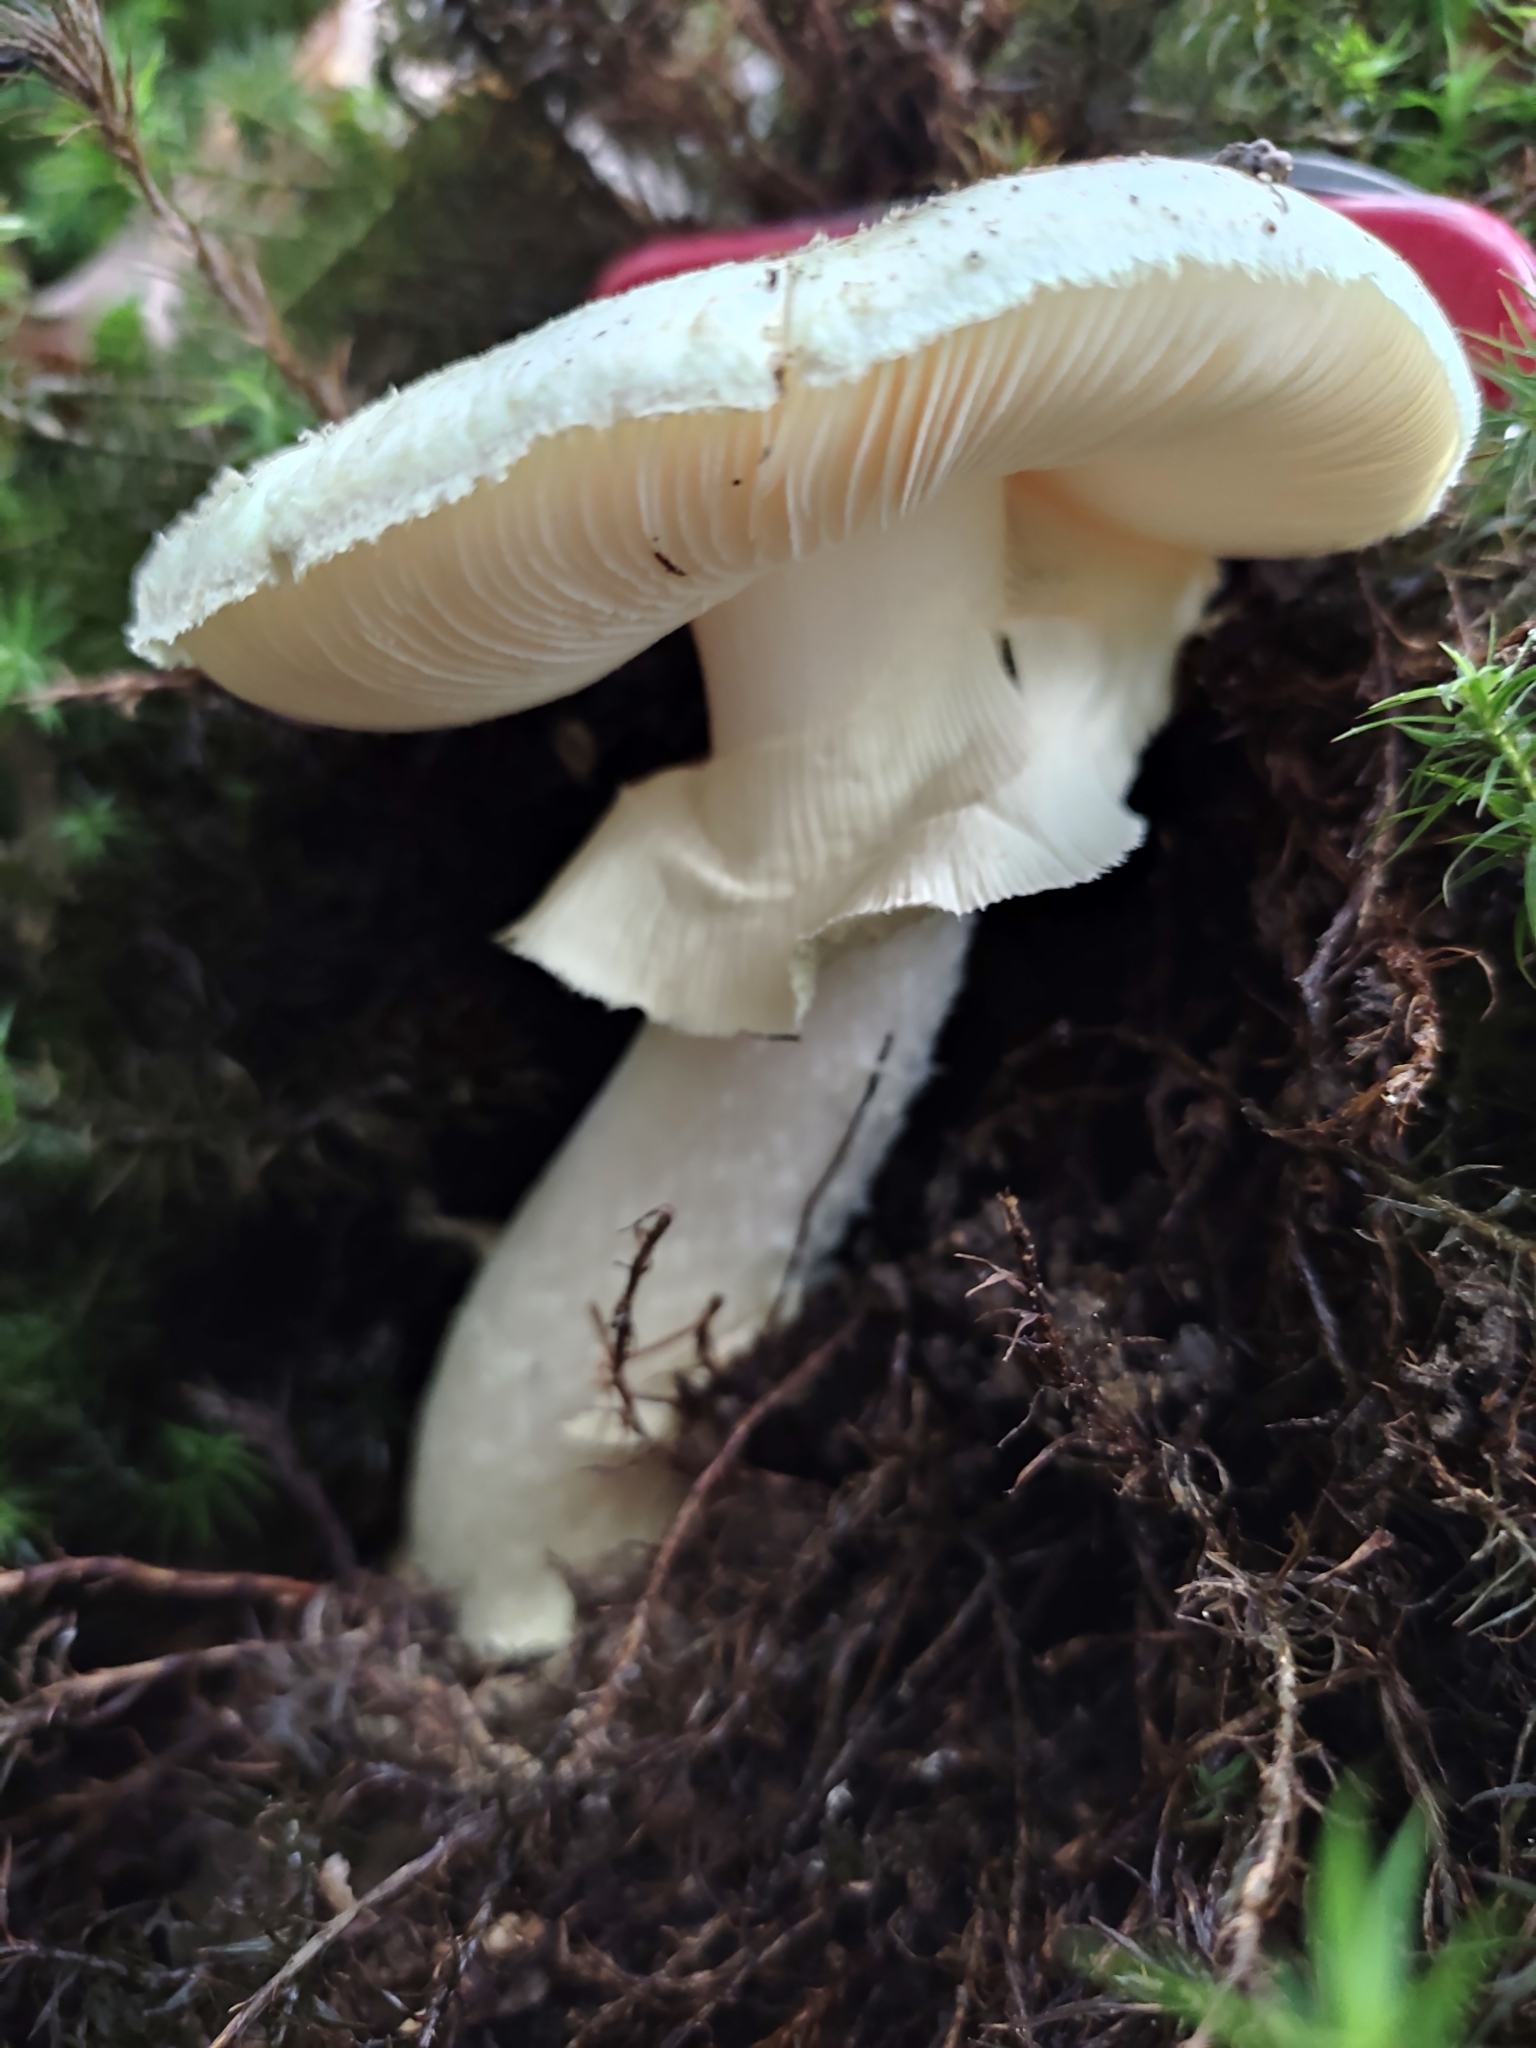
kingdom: Fungi
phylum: Basidiomycota
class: Agaricomycetes
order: Agaricales
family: Amanitaceae
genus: Amanita
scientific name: Amanita citrina
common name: False death-cap
